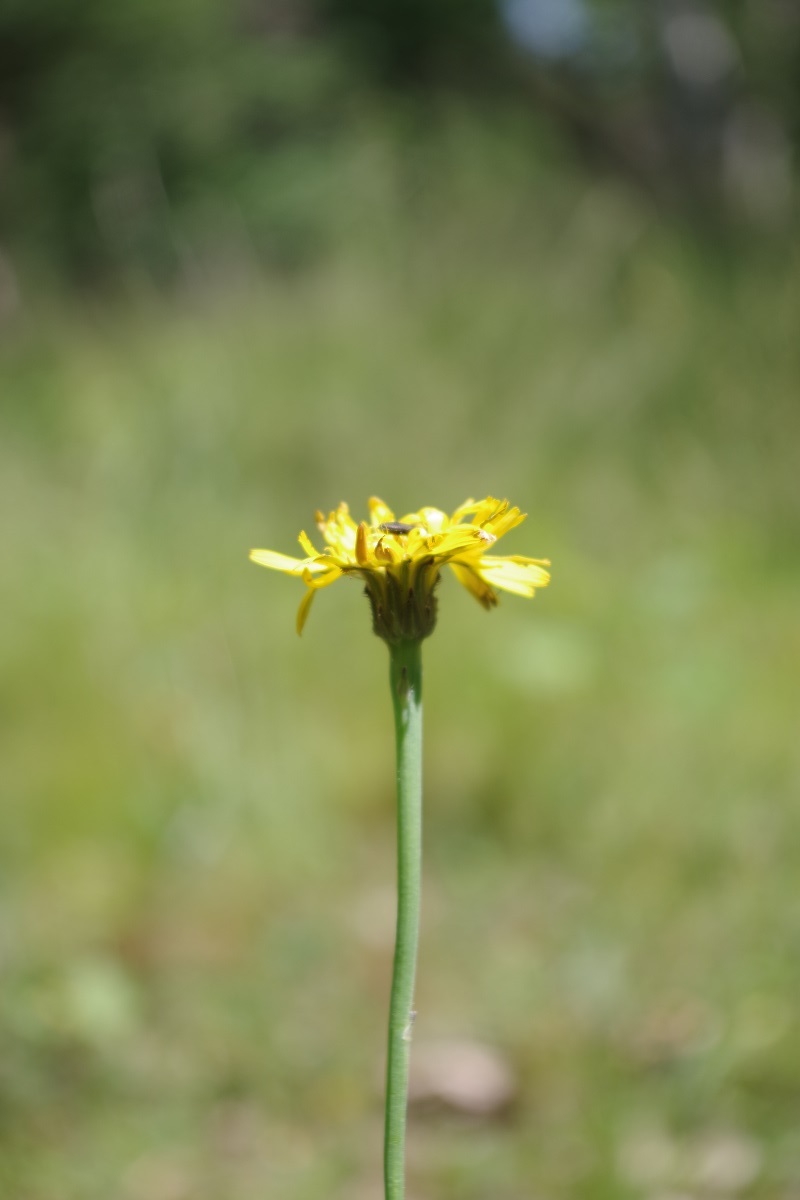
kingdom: Plantae
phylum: Tracheophyta
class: Magnoliopsida
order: Asterales
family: Asteraceae
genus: Hypochaeris
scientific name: Hypochaeris radicata
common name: Flatweed
